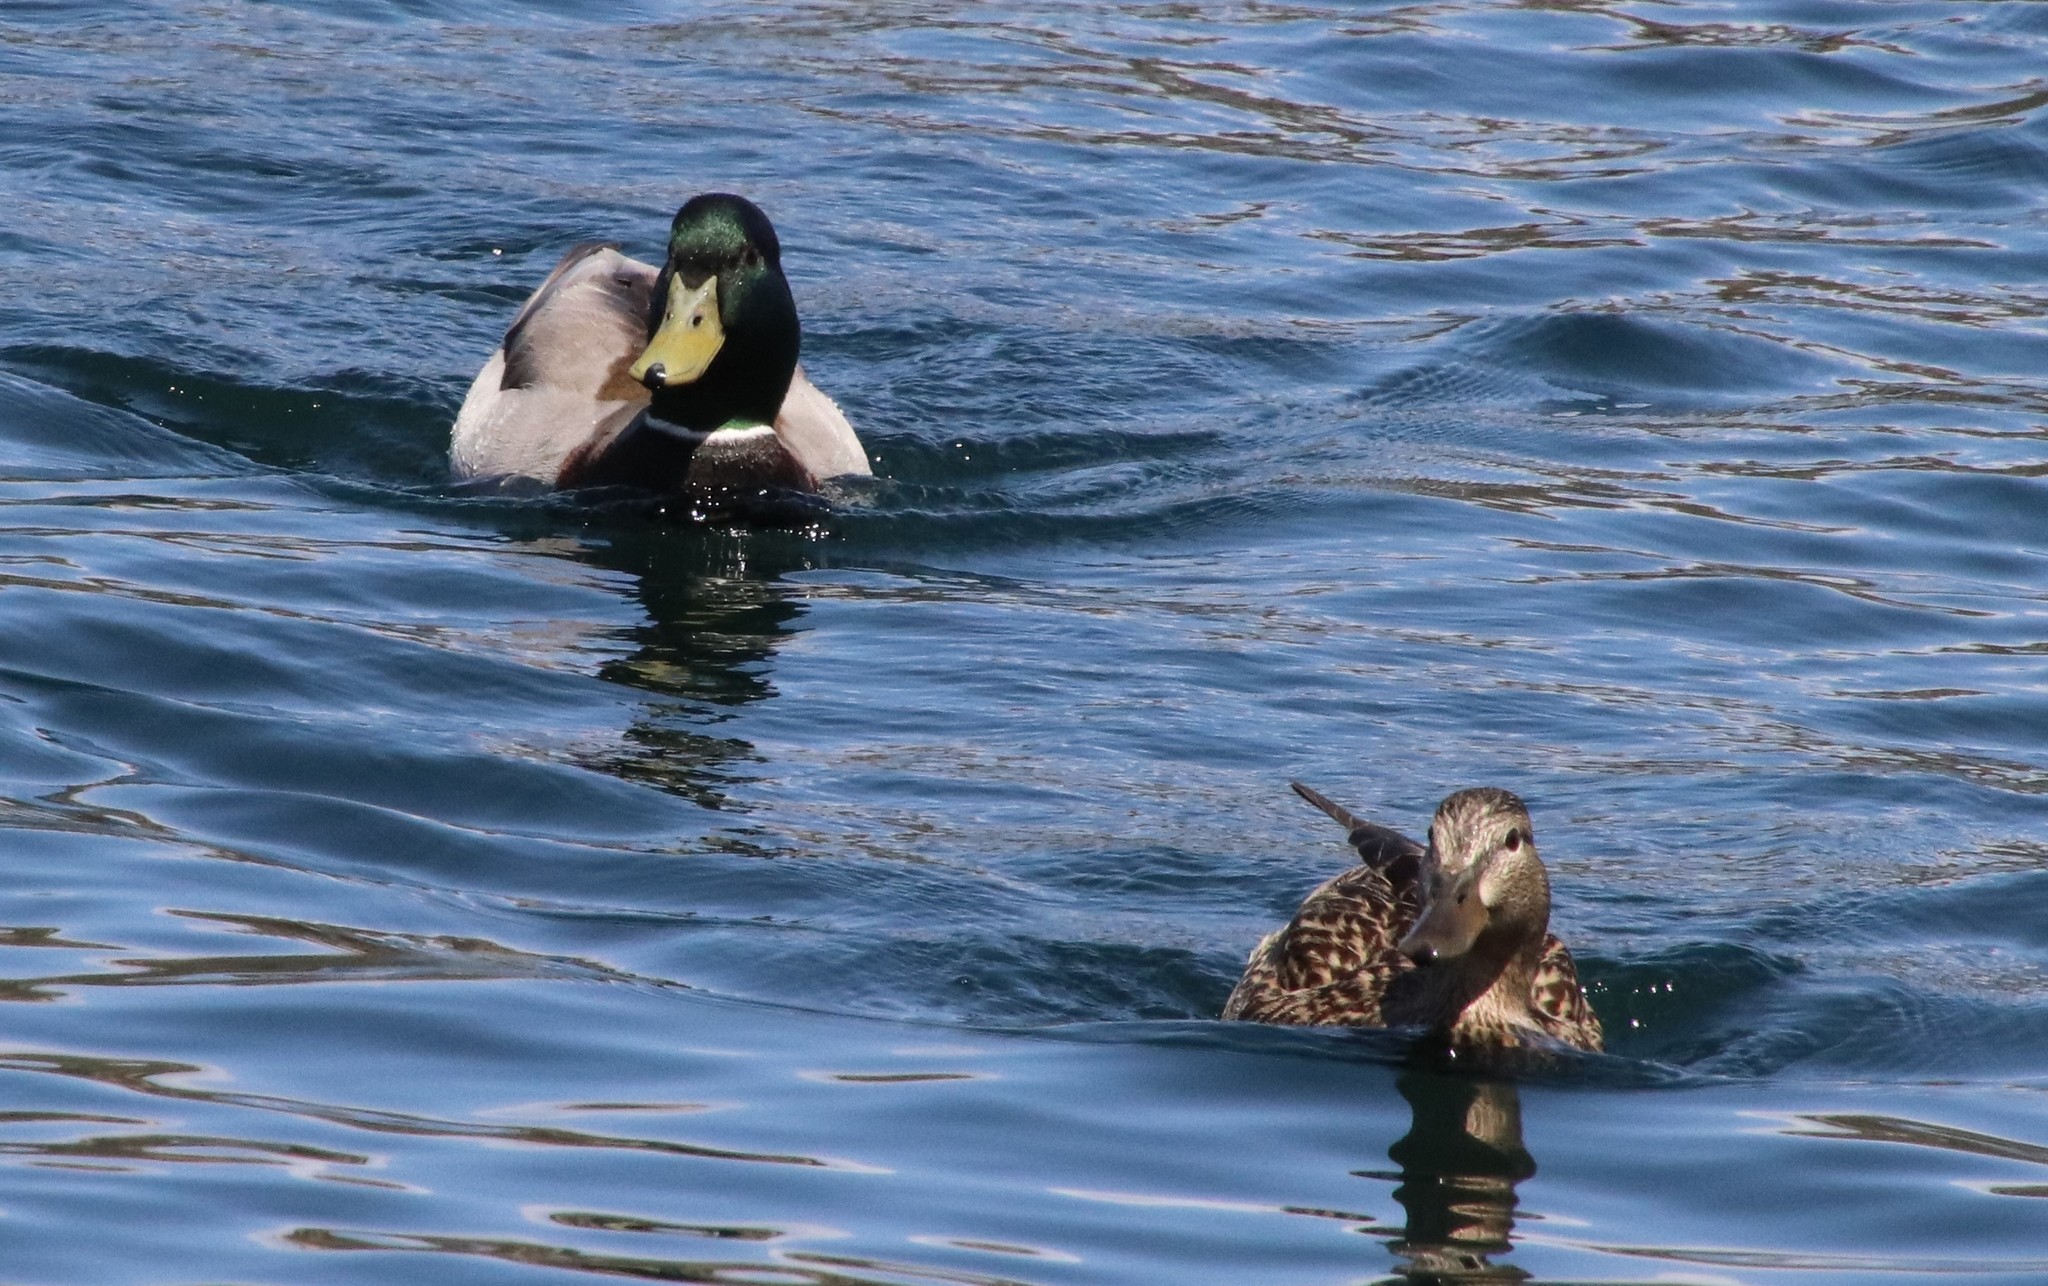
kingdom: Animalia
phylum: Chordata
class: Aves
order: Anseriformes
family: Anatidae
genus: Anas
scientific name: Anas platyrhynchos
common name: Mallard
